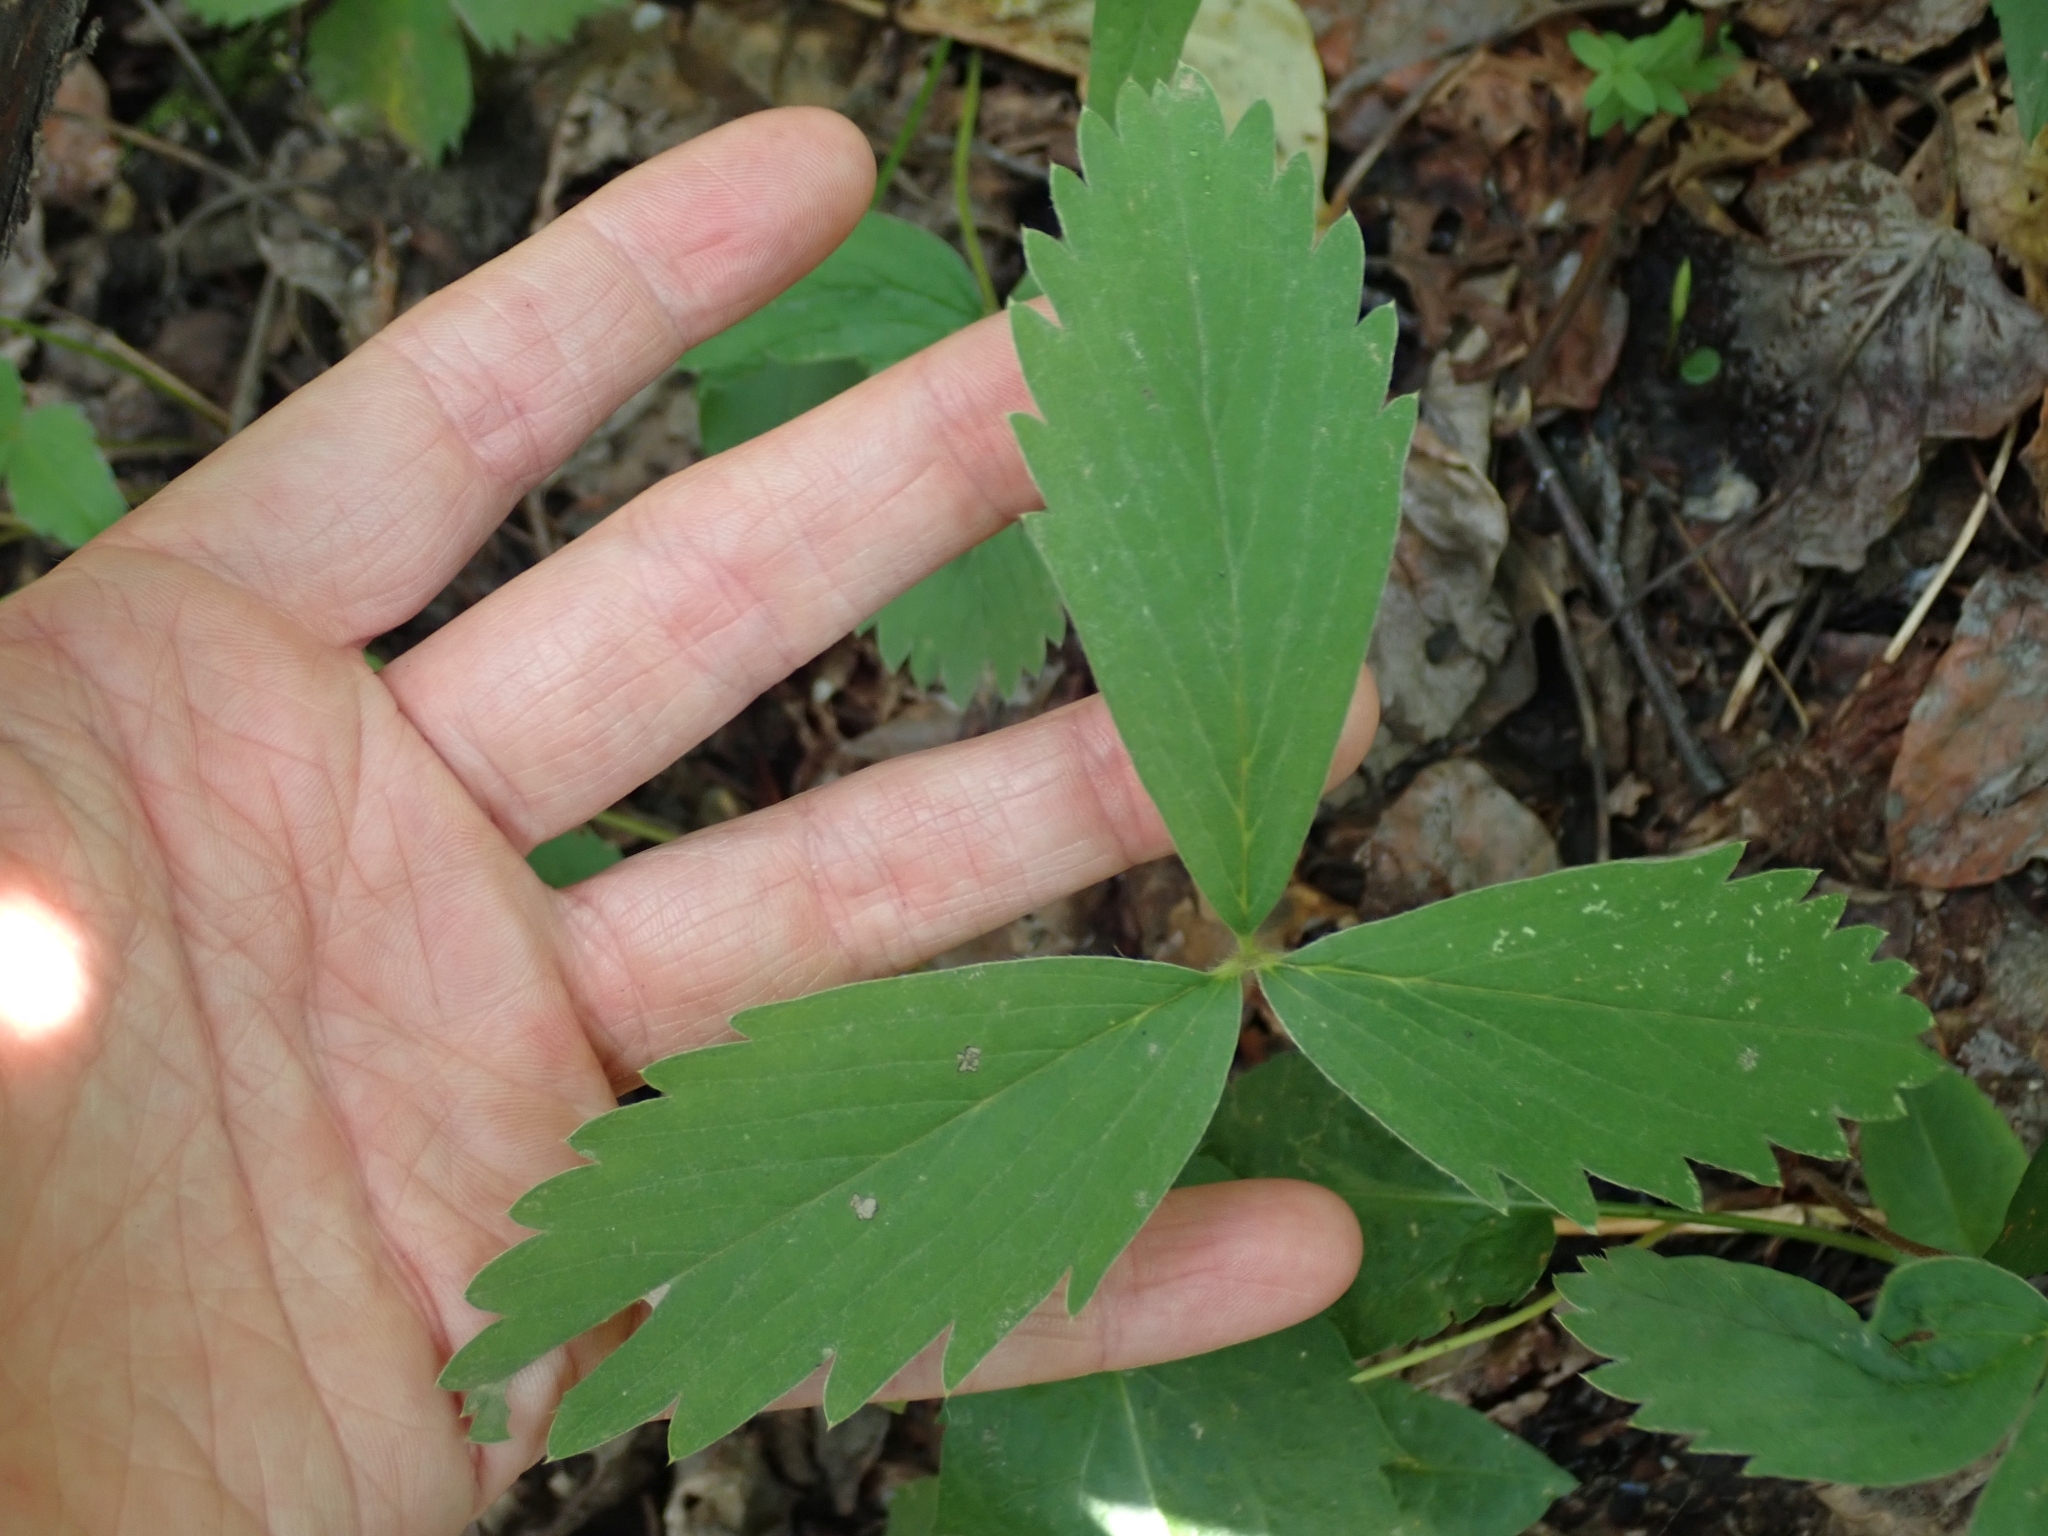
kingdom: Plantae
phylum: Tracheophyta
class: Magnoliopsida
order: Rosales
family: Rosaceae
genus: Fragaria
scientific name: Fragaria virginiana
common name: Thickleaved wild strawberry
